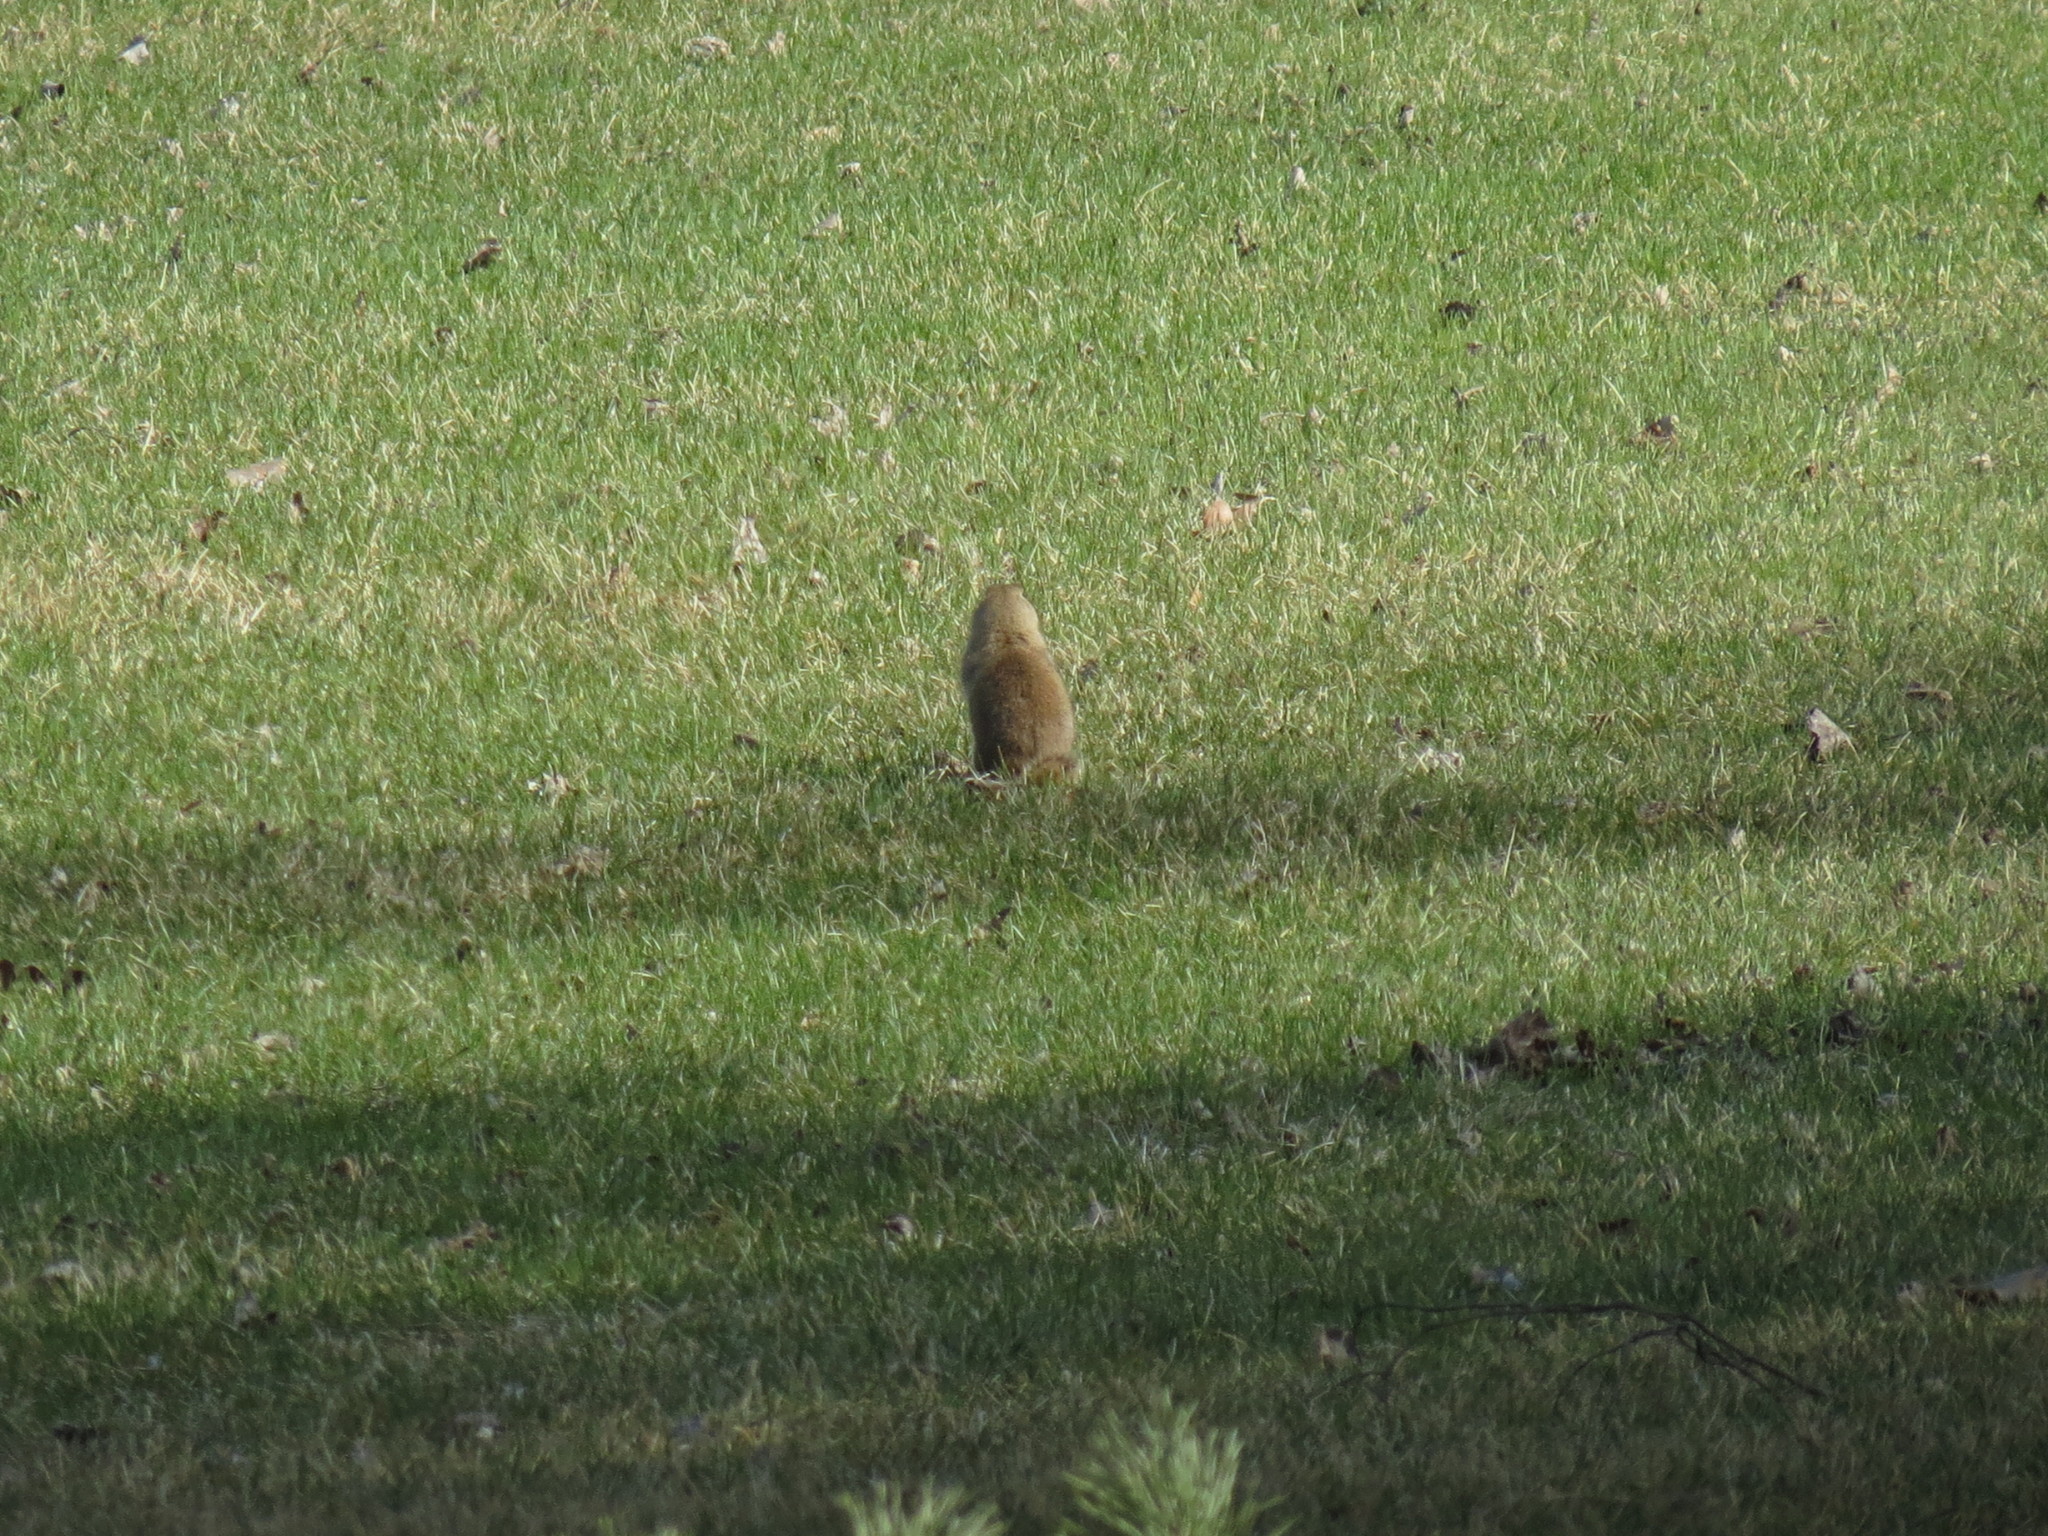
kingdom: Animalia
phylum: Chordata
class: Mammalia
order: Rodentia
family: Sciuridae
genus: Urocitellus
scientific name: Urocitellus richardsonii
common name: Richardson's ground squirrel
